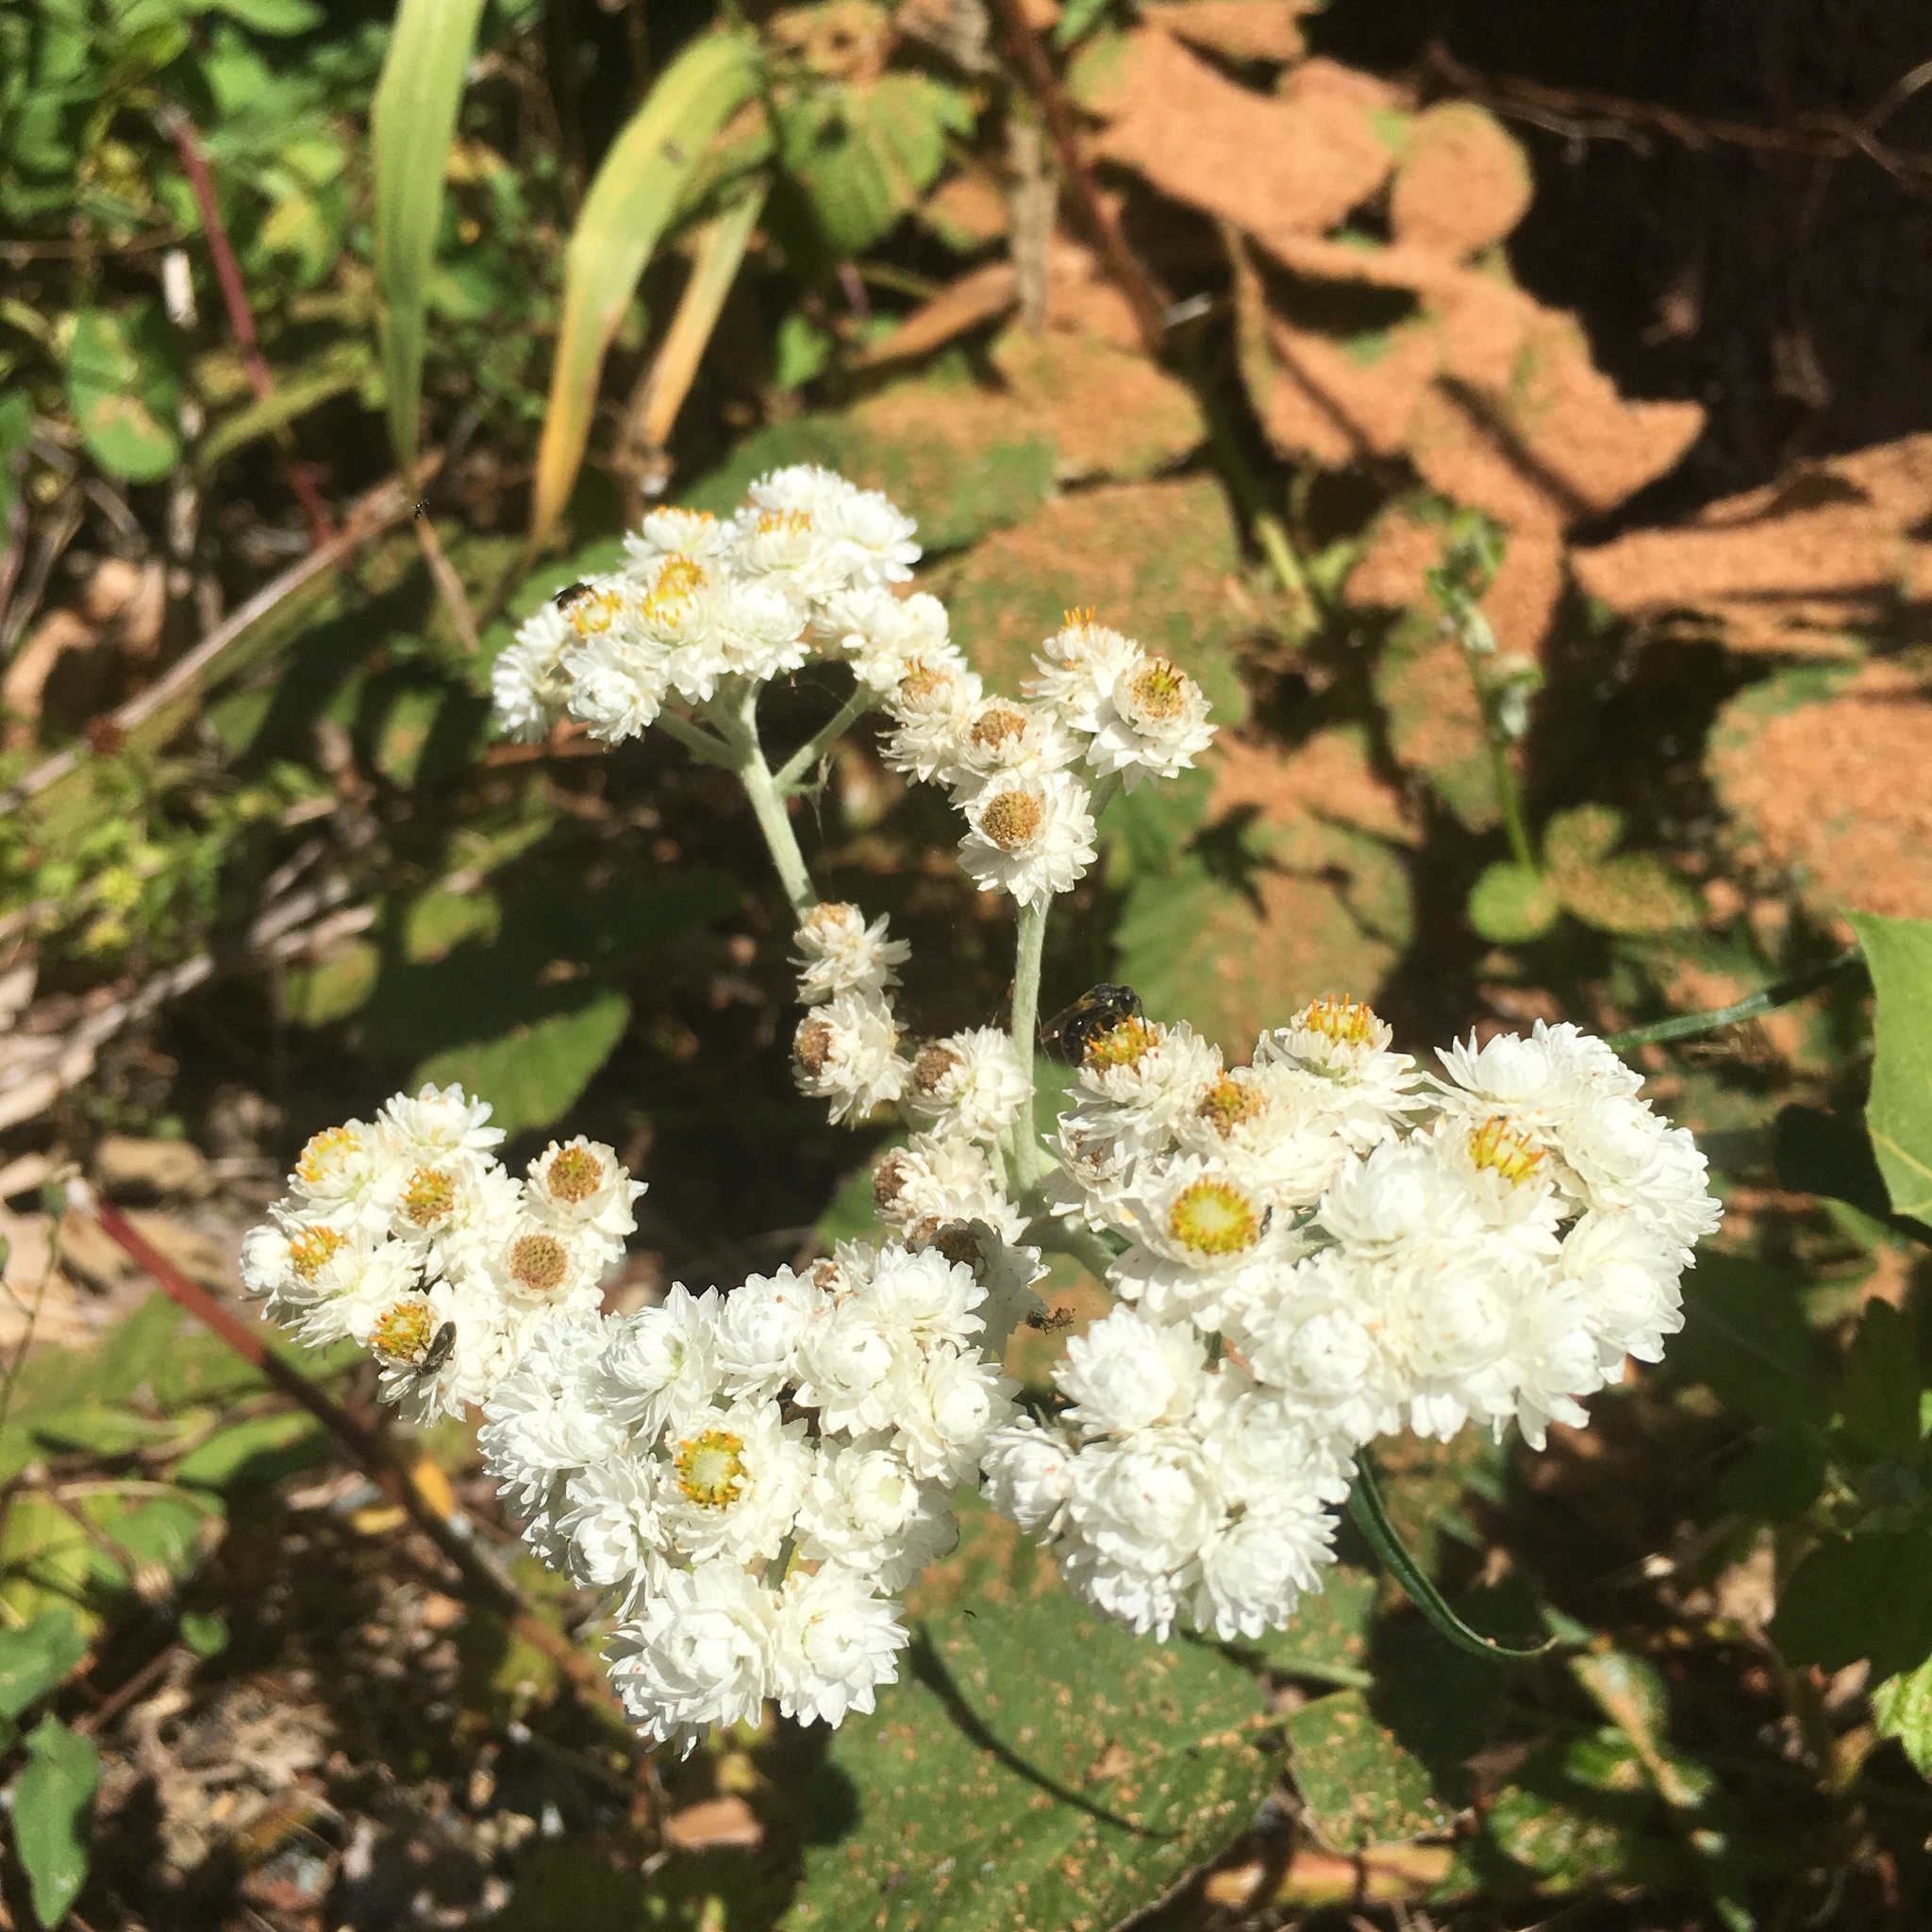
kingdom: Plantae
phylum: Tracheophyta
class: Magnoliopsida
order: Asterales
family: Asteraceae
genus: Anaphalis
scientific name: Anaphalis margaritacea
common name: Pearly everlasting
